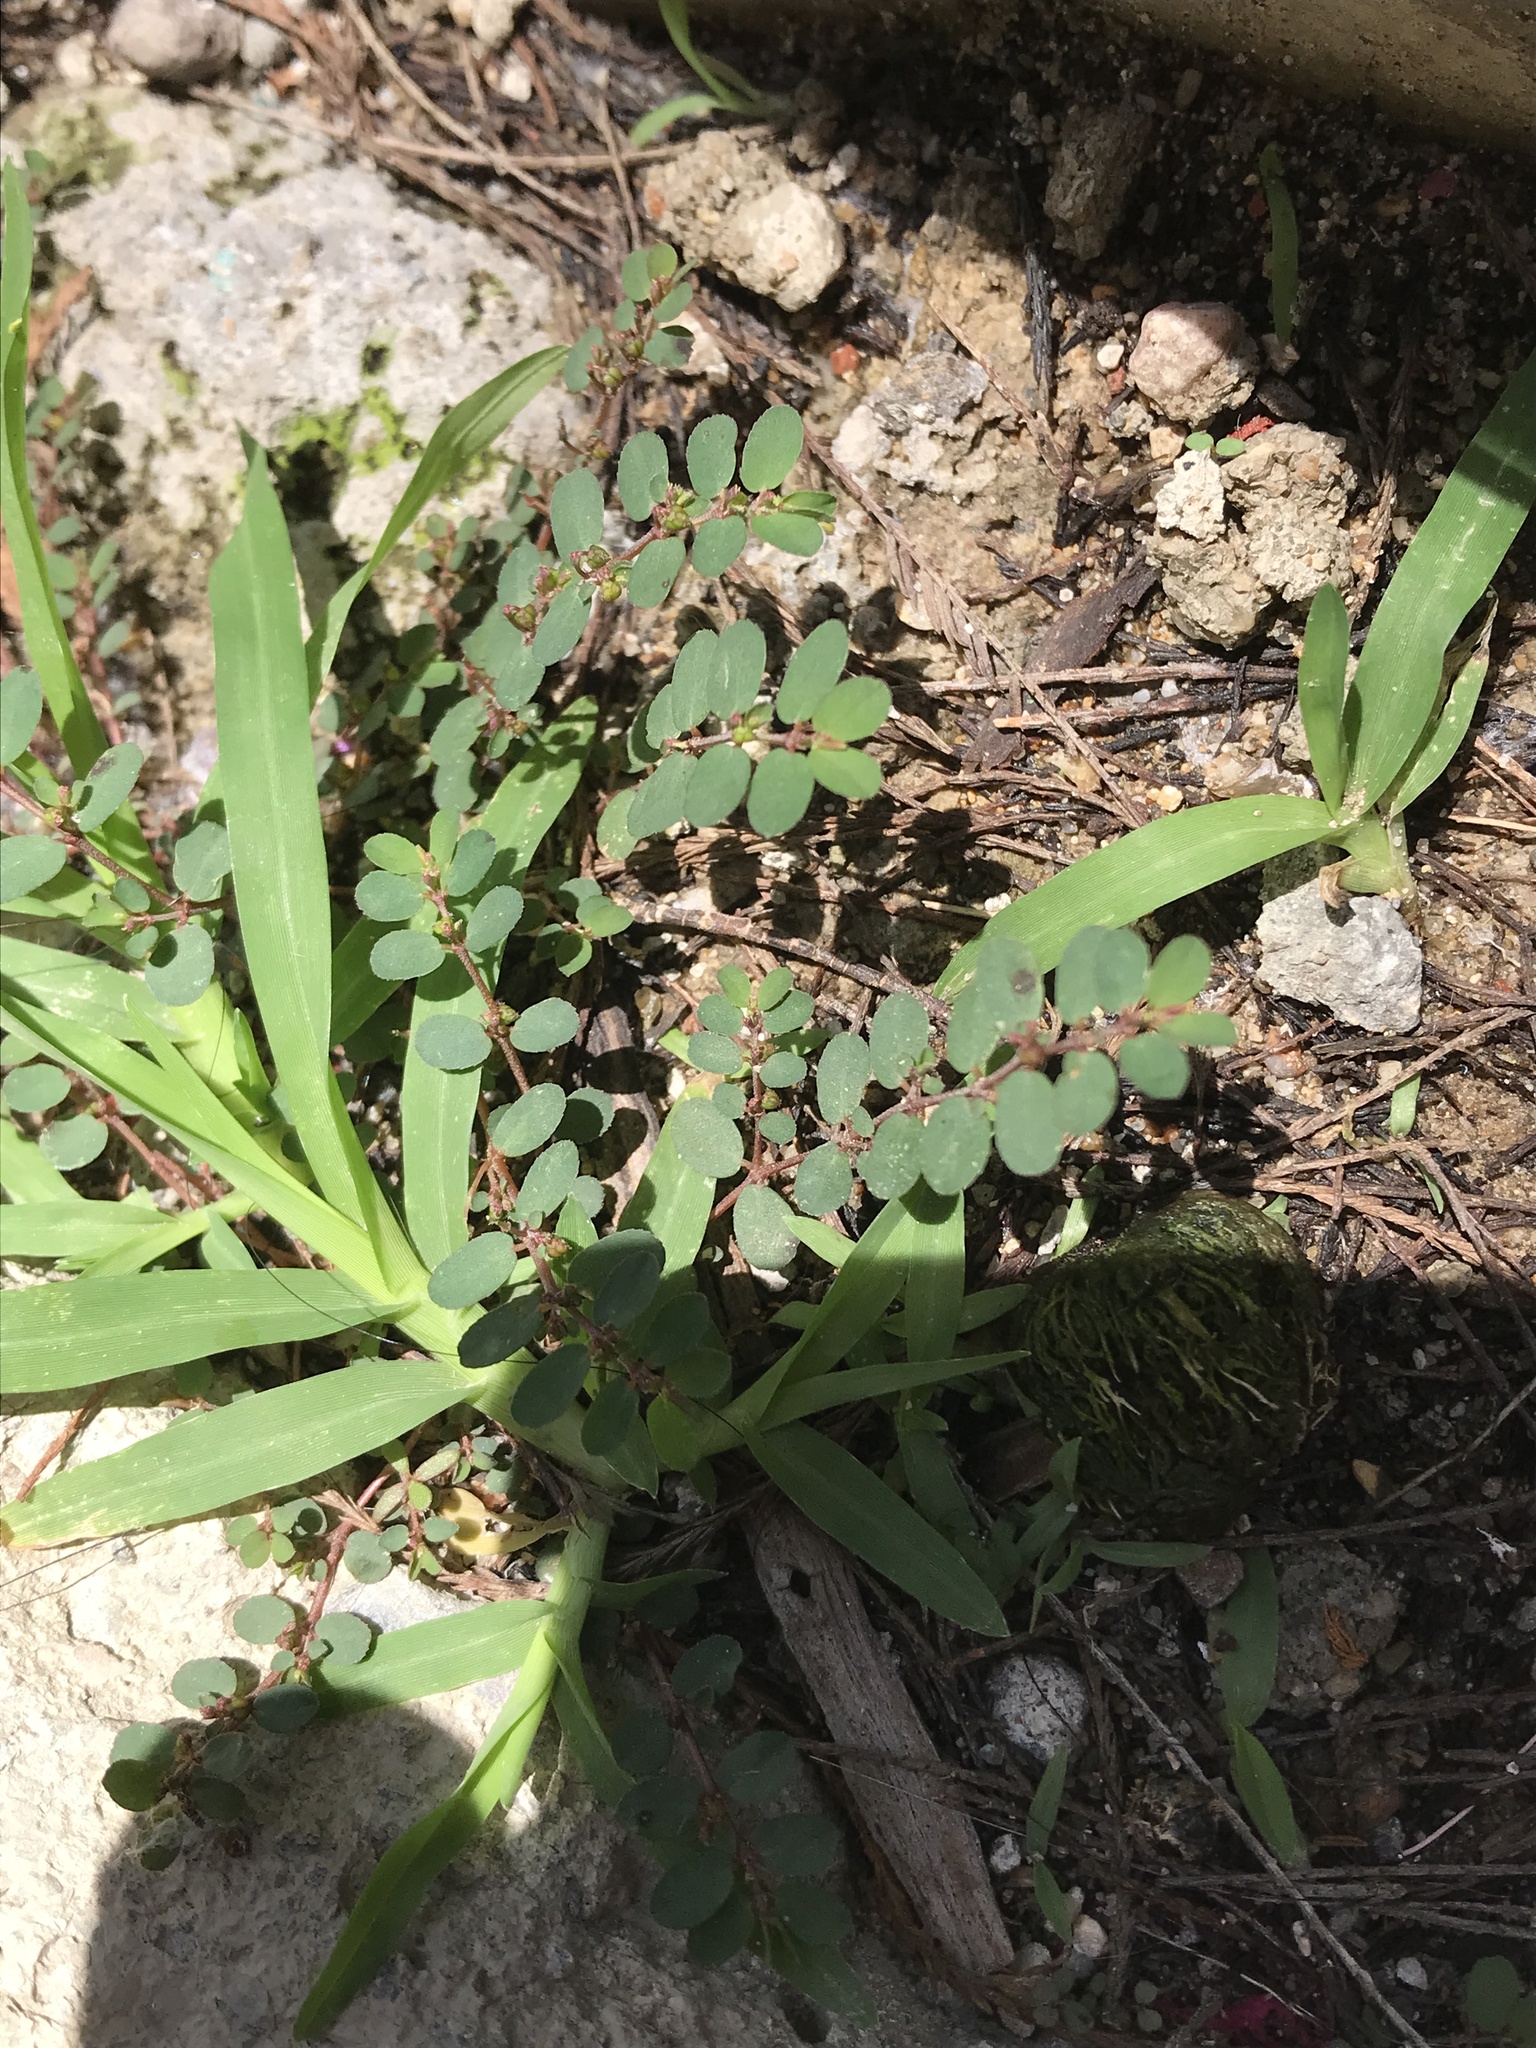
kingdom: Plantae
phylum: Tracheophyta
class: Magnoliopsida
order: Malpighiales
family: Euphorbiaceae
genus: Euphorbia
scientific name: Euphorbia prostrata
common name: Prostrate sandmat
